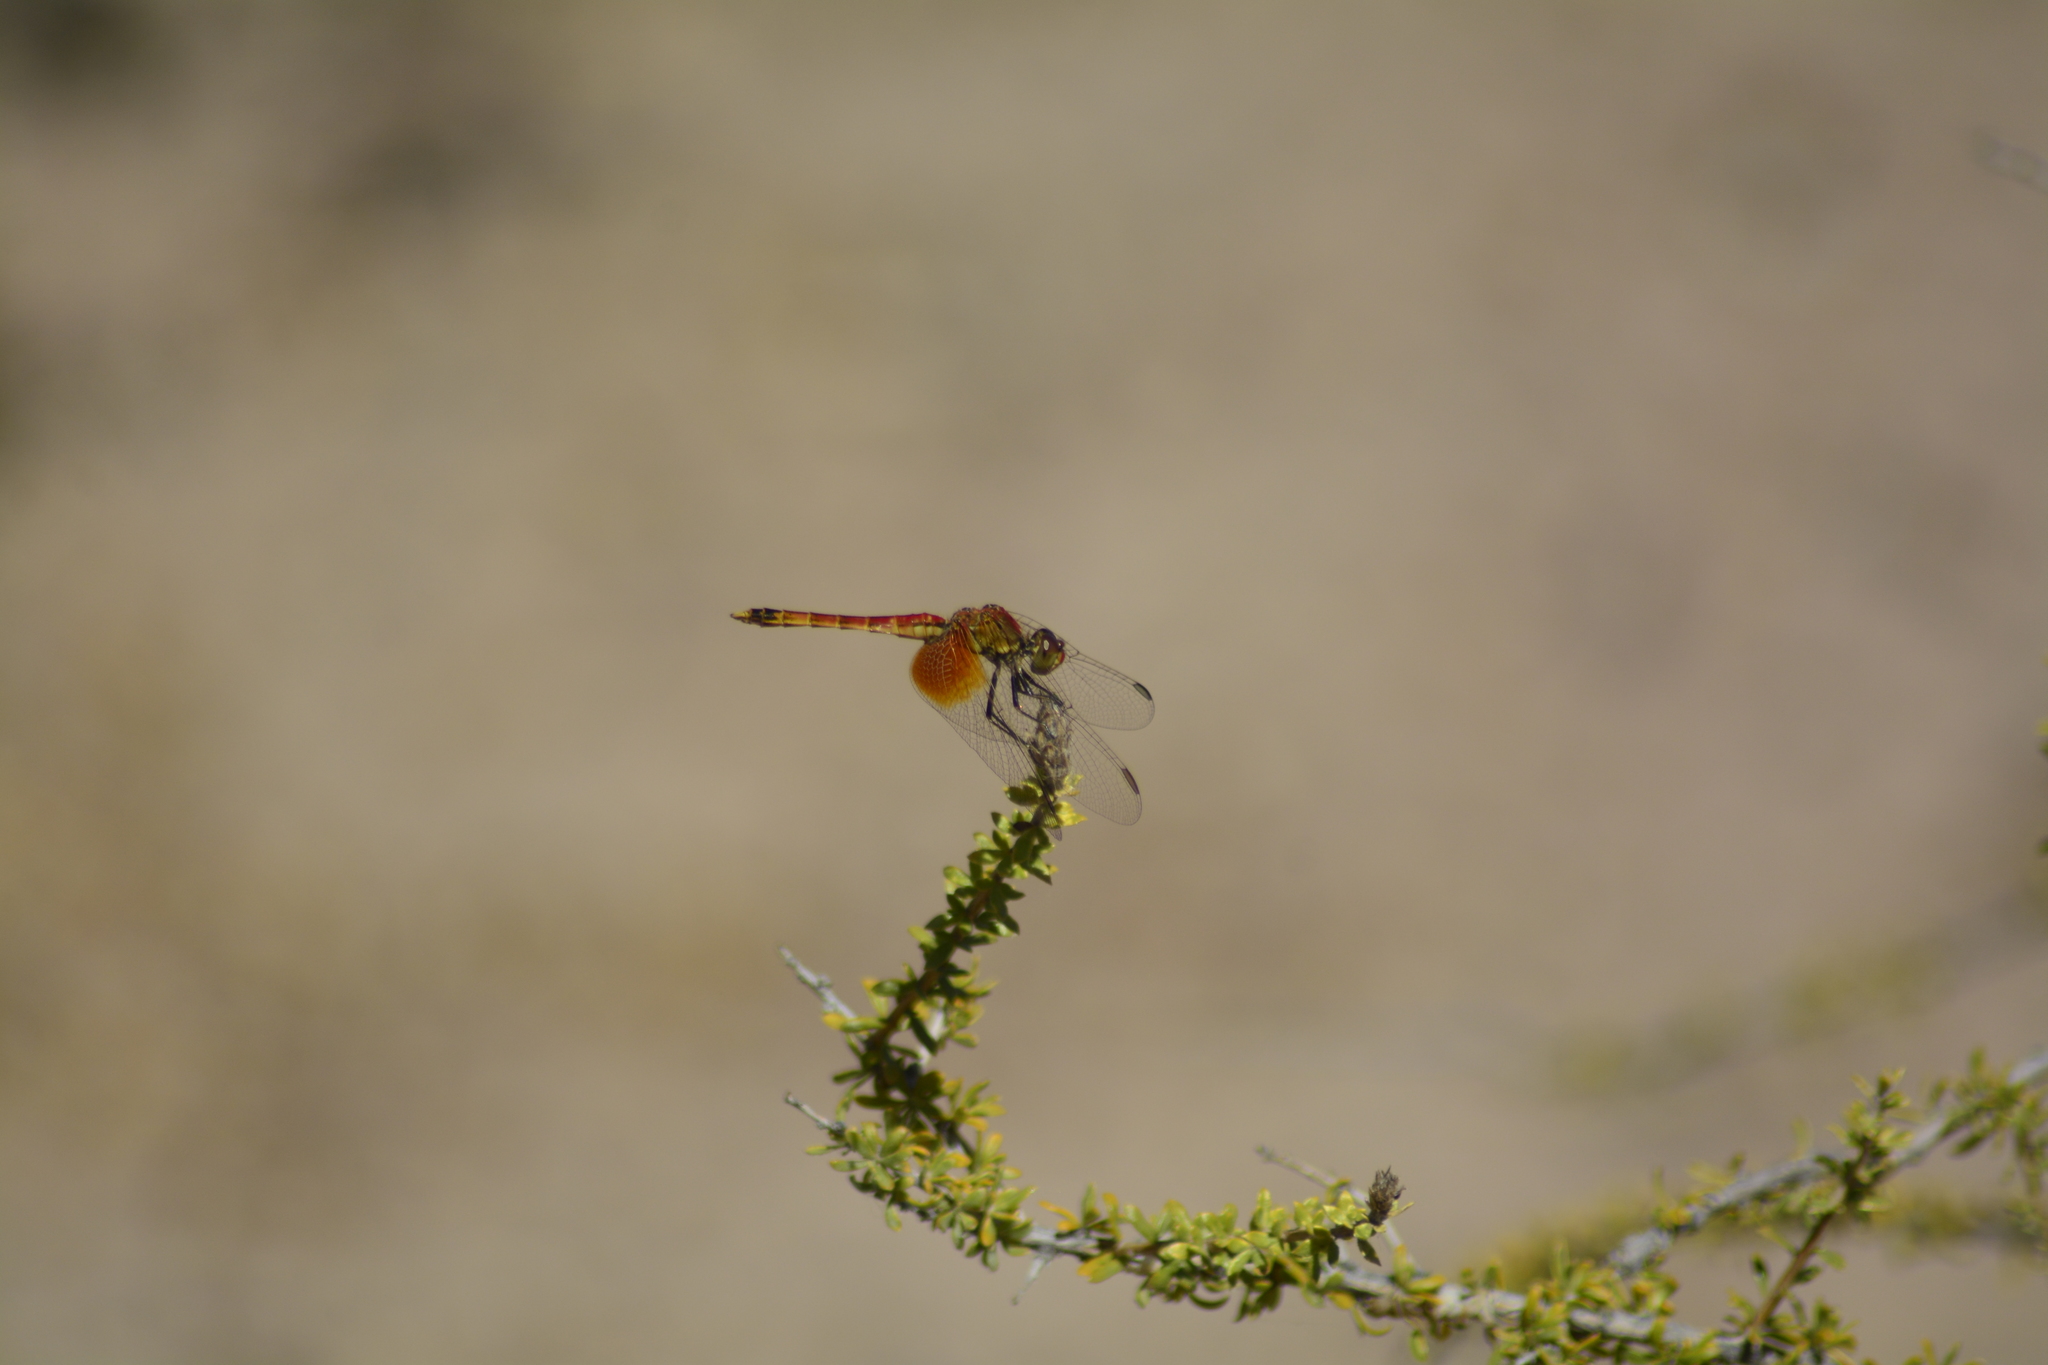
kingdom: Animalia
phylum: Arthropoda
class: Insecta
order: Odonata
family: Libellulidae
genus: Erythrodiplax
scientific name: Erythrodiplax corallina
